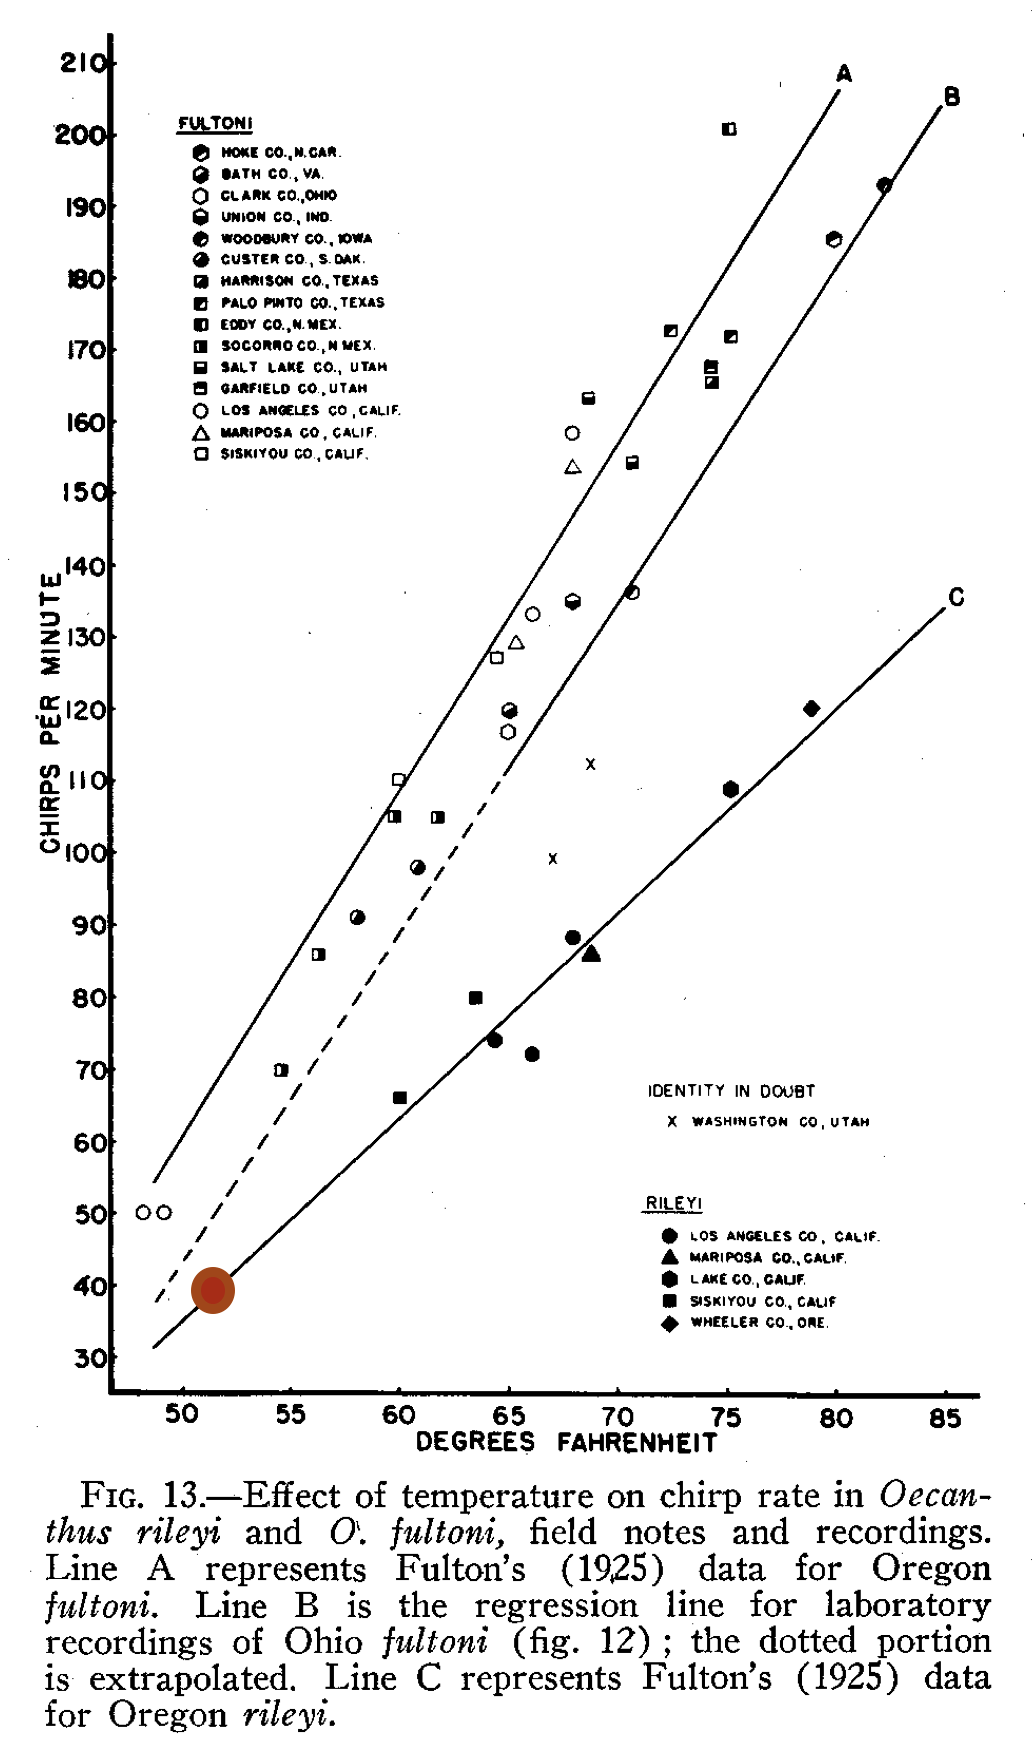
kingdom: Animalia
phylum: Arthropoda
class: Insecta
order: Orthoptera
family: Gryllidae
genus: Oecanthus
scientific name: Oecanthus rileyi
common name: Riley's tree cricket
